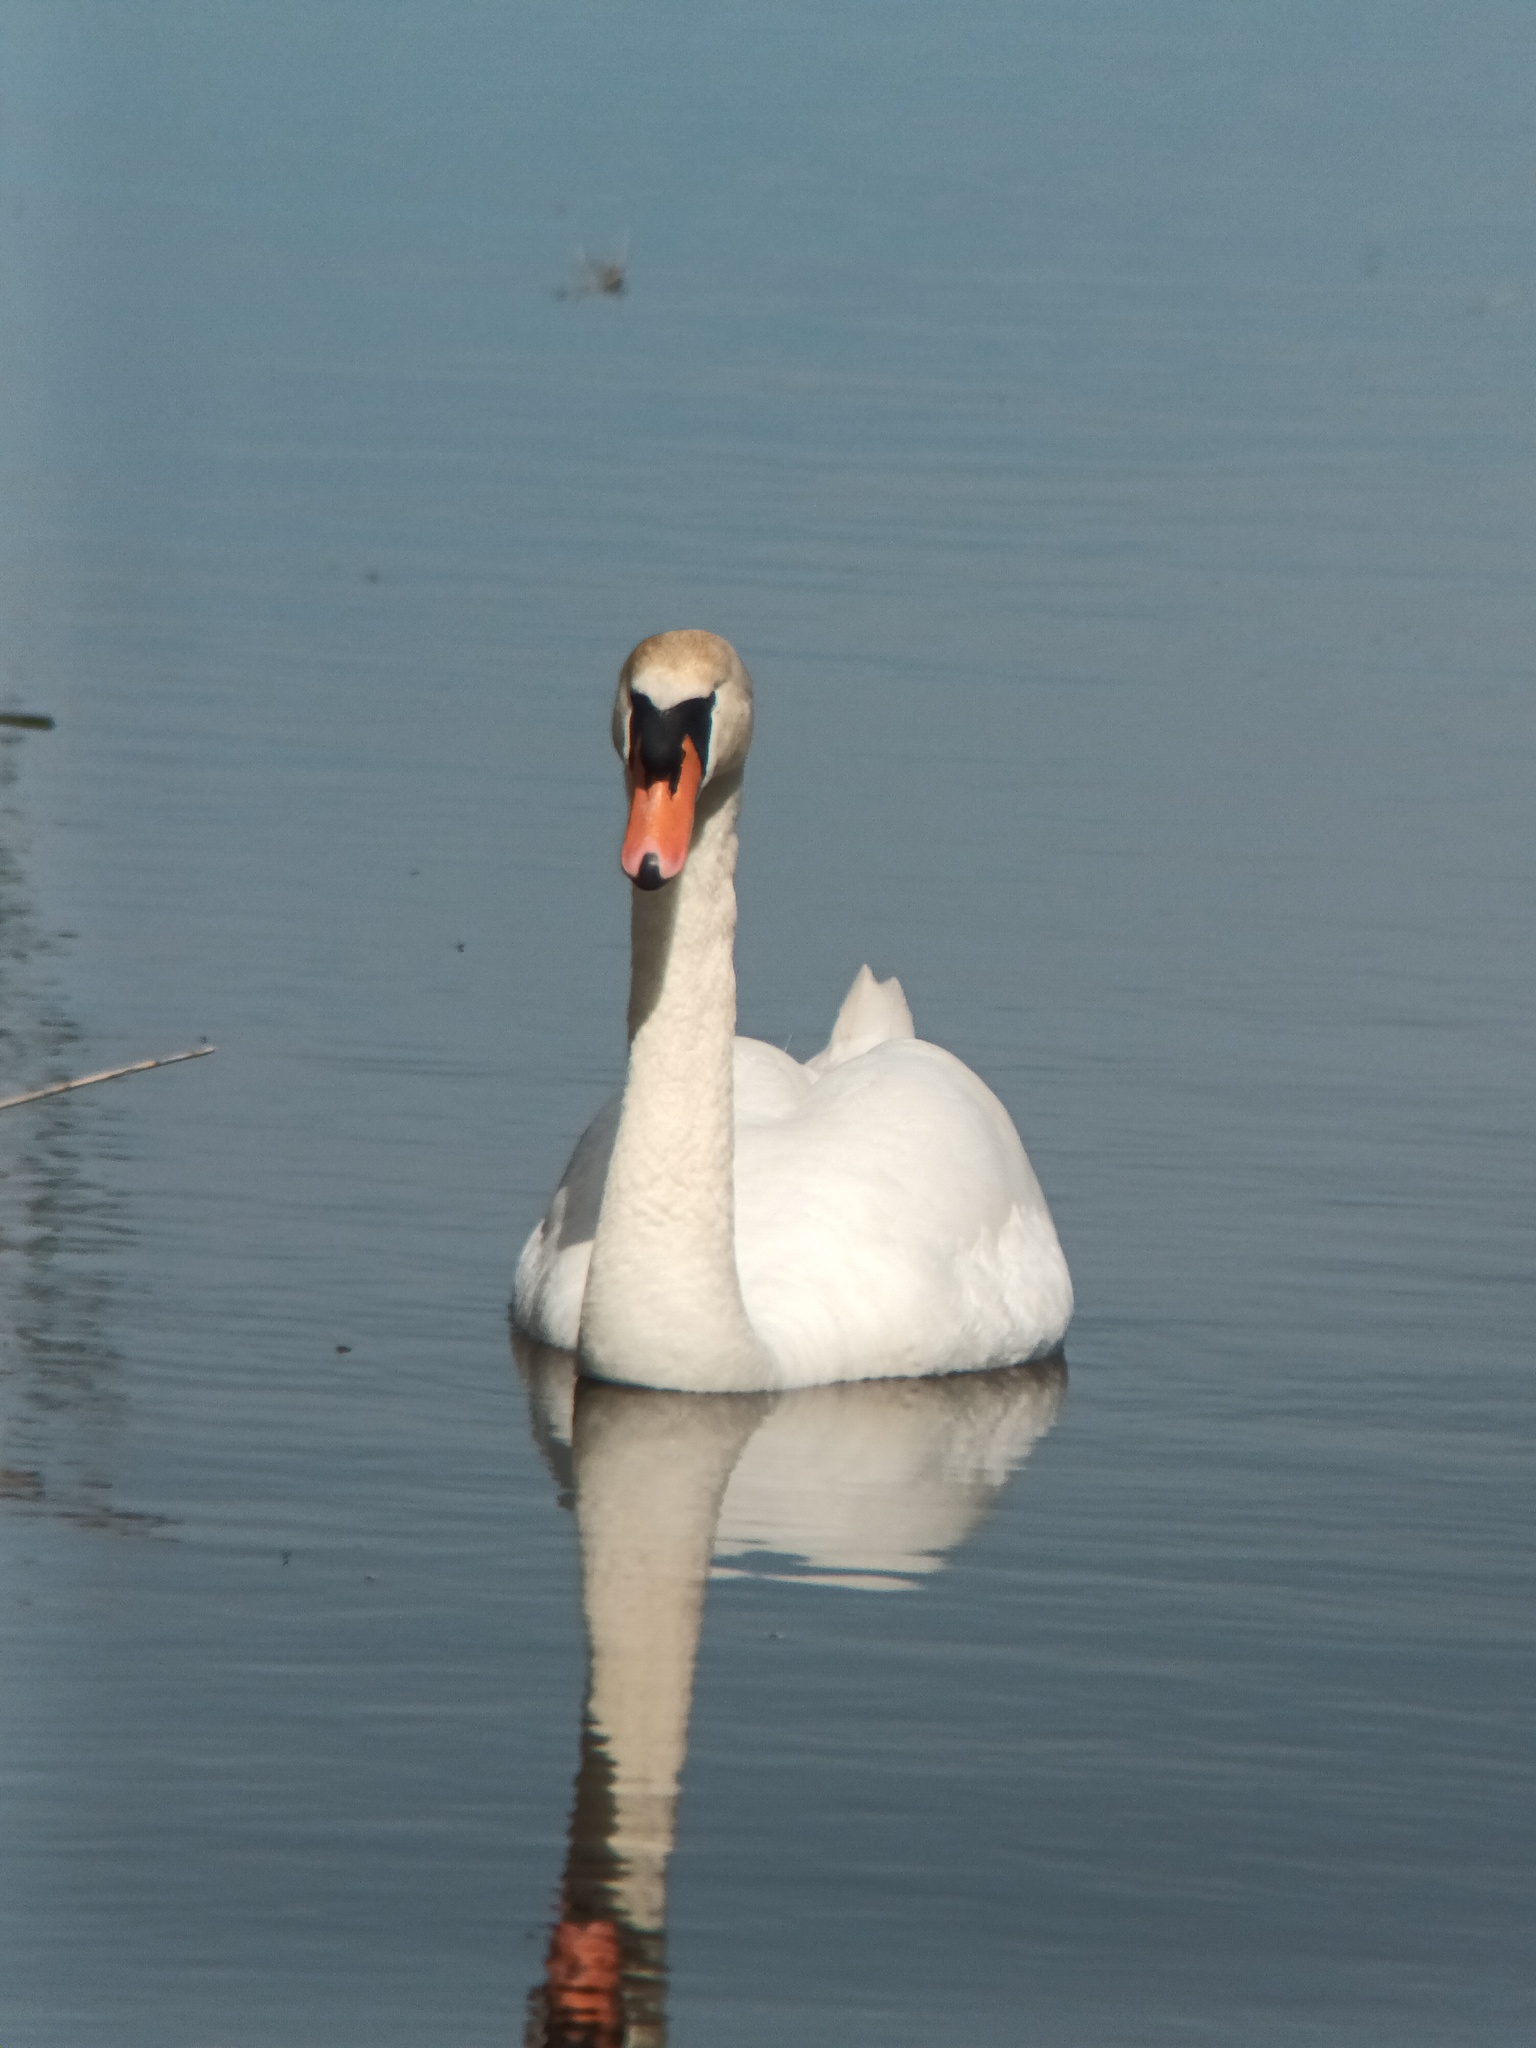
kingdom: Animalia
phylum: Chordata
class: Aves
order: Anseriformes
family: Anatidae
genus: Cygnus
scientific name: Cygnus olor
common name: Mute swan
